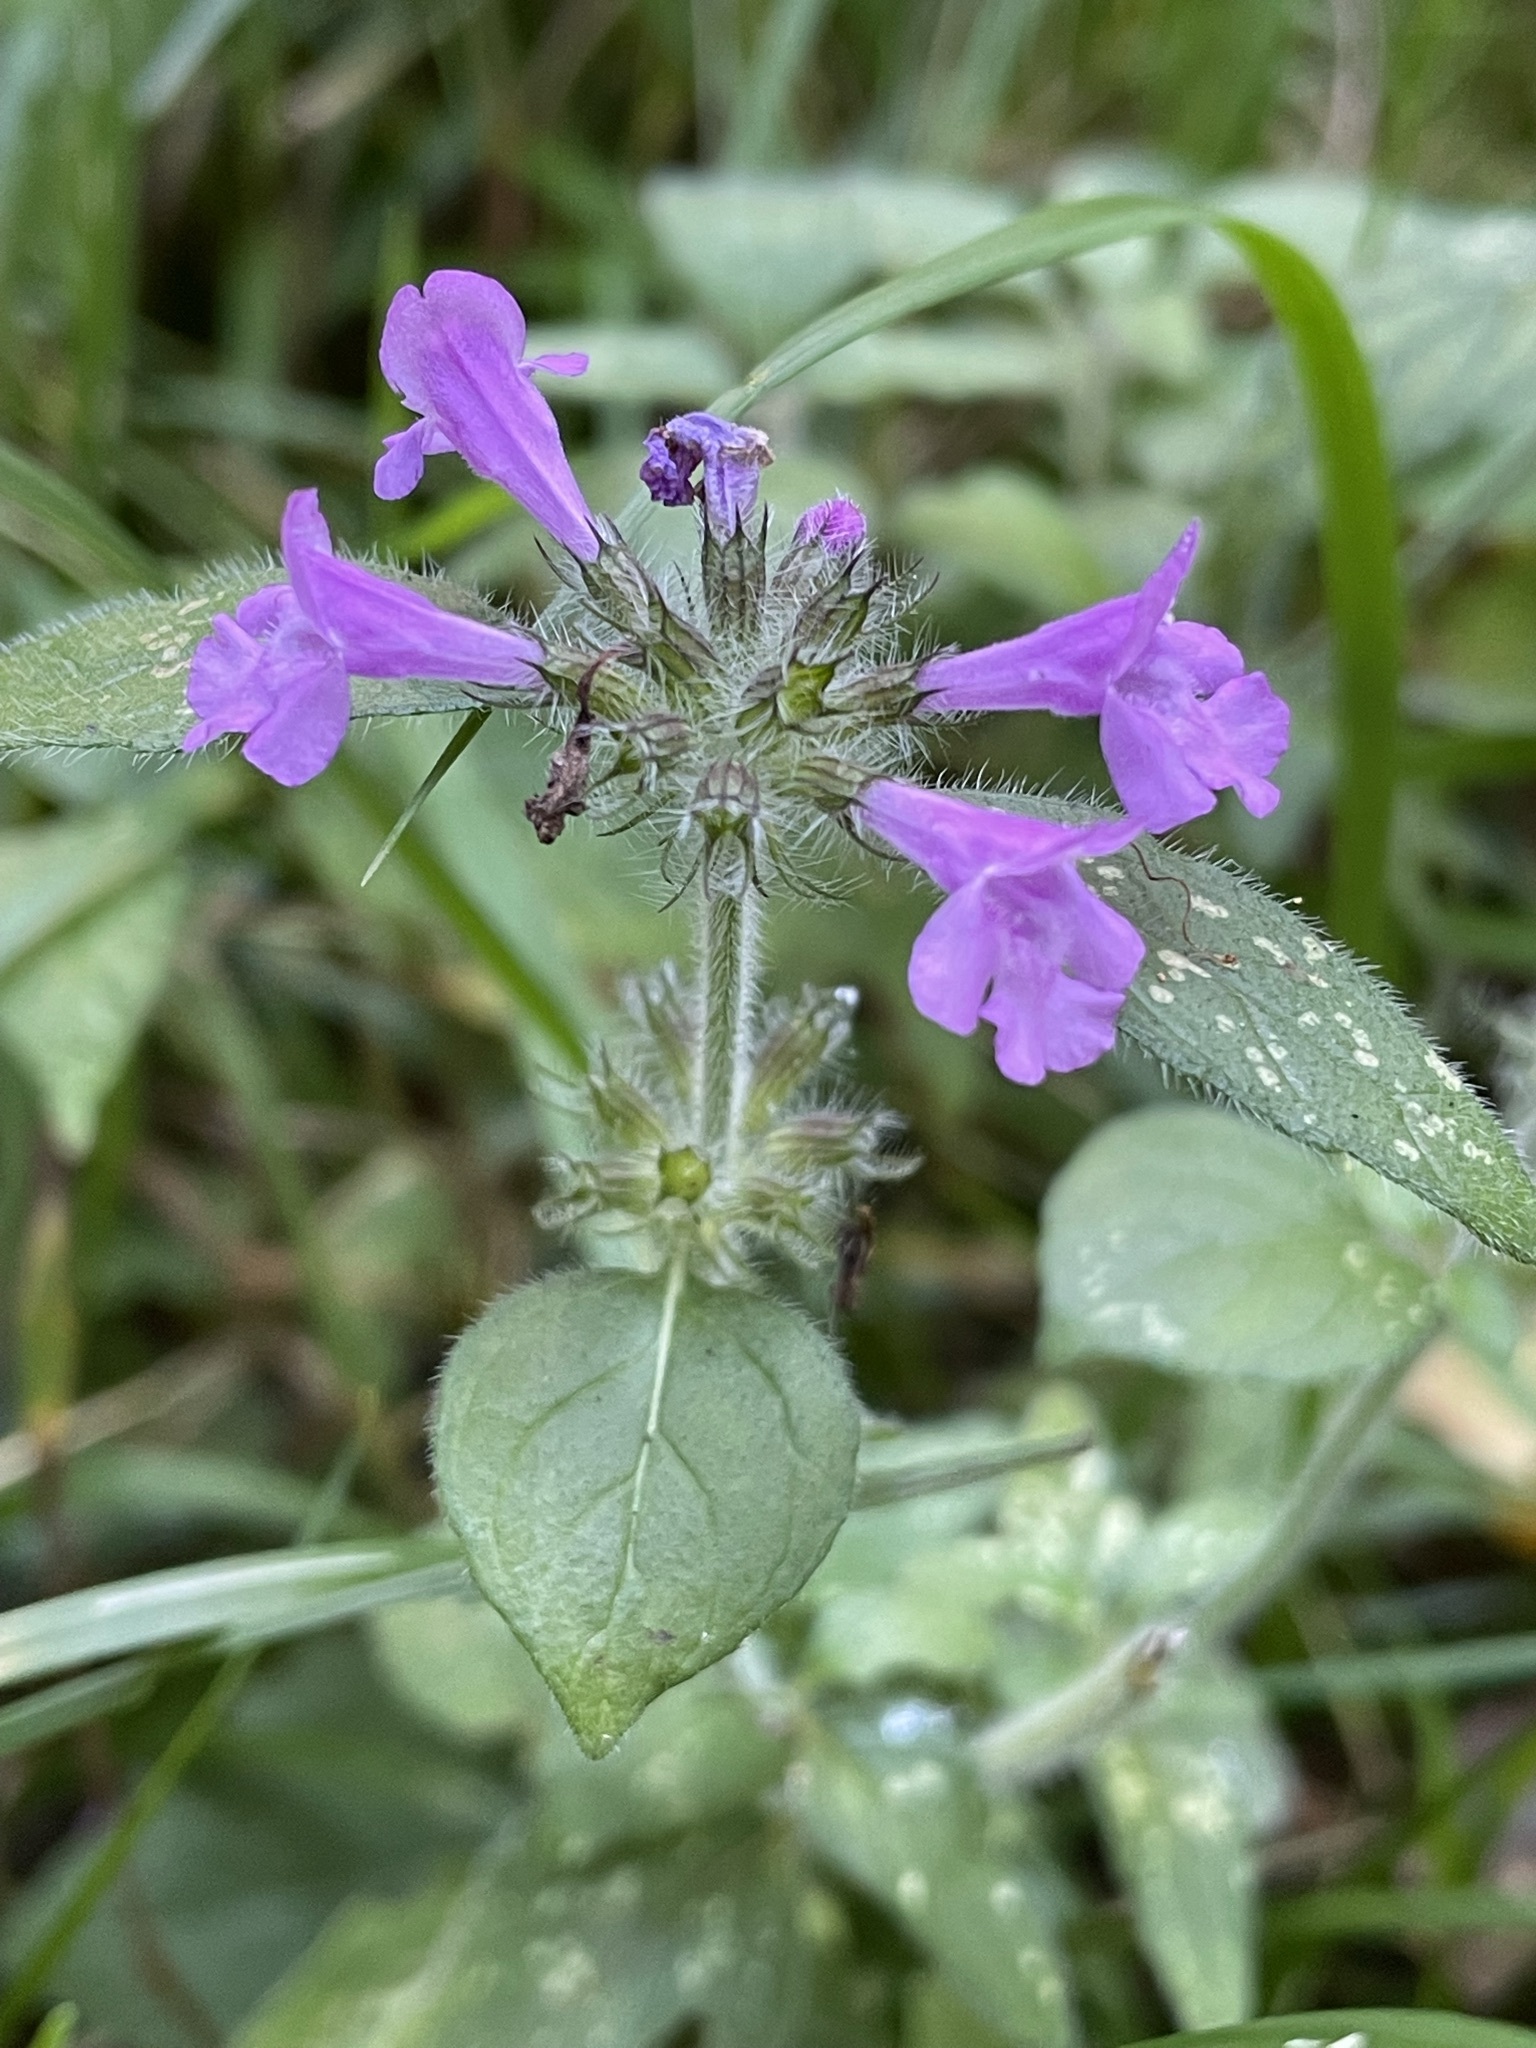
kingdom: Plantae
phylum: Tracheophyta
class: Magnoliopsida
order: Lamiales
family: Lamiaceae
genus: Clinopodium
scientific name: Clinopodium vulgare
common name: Wild basil
